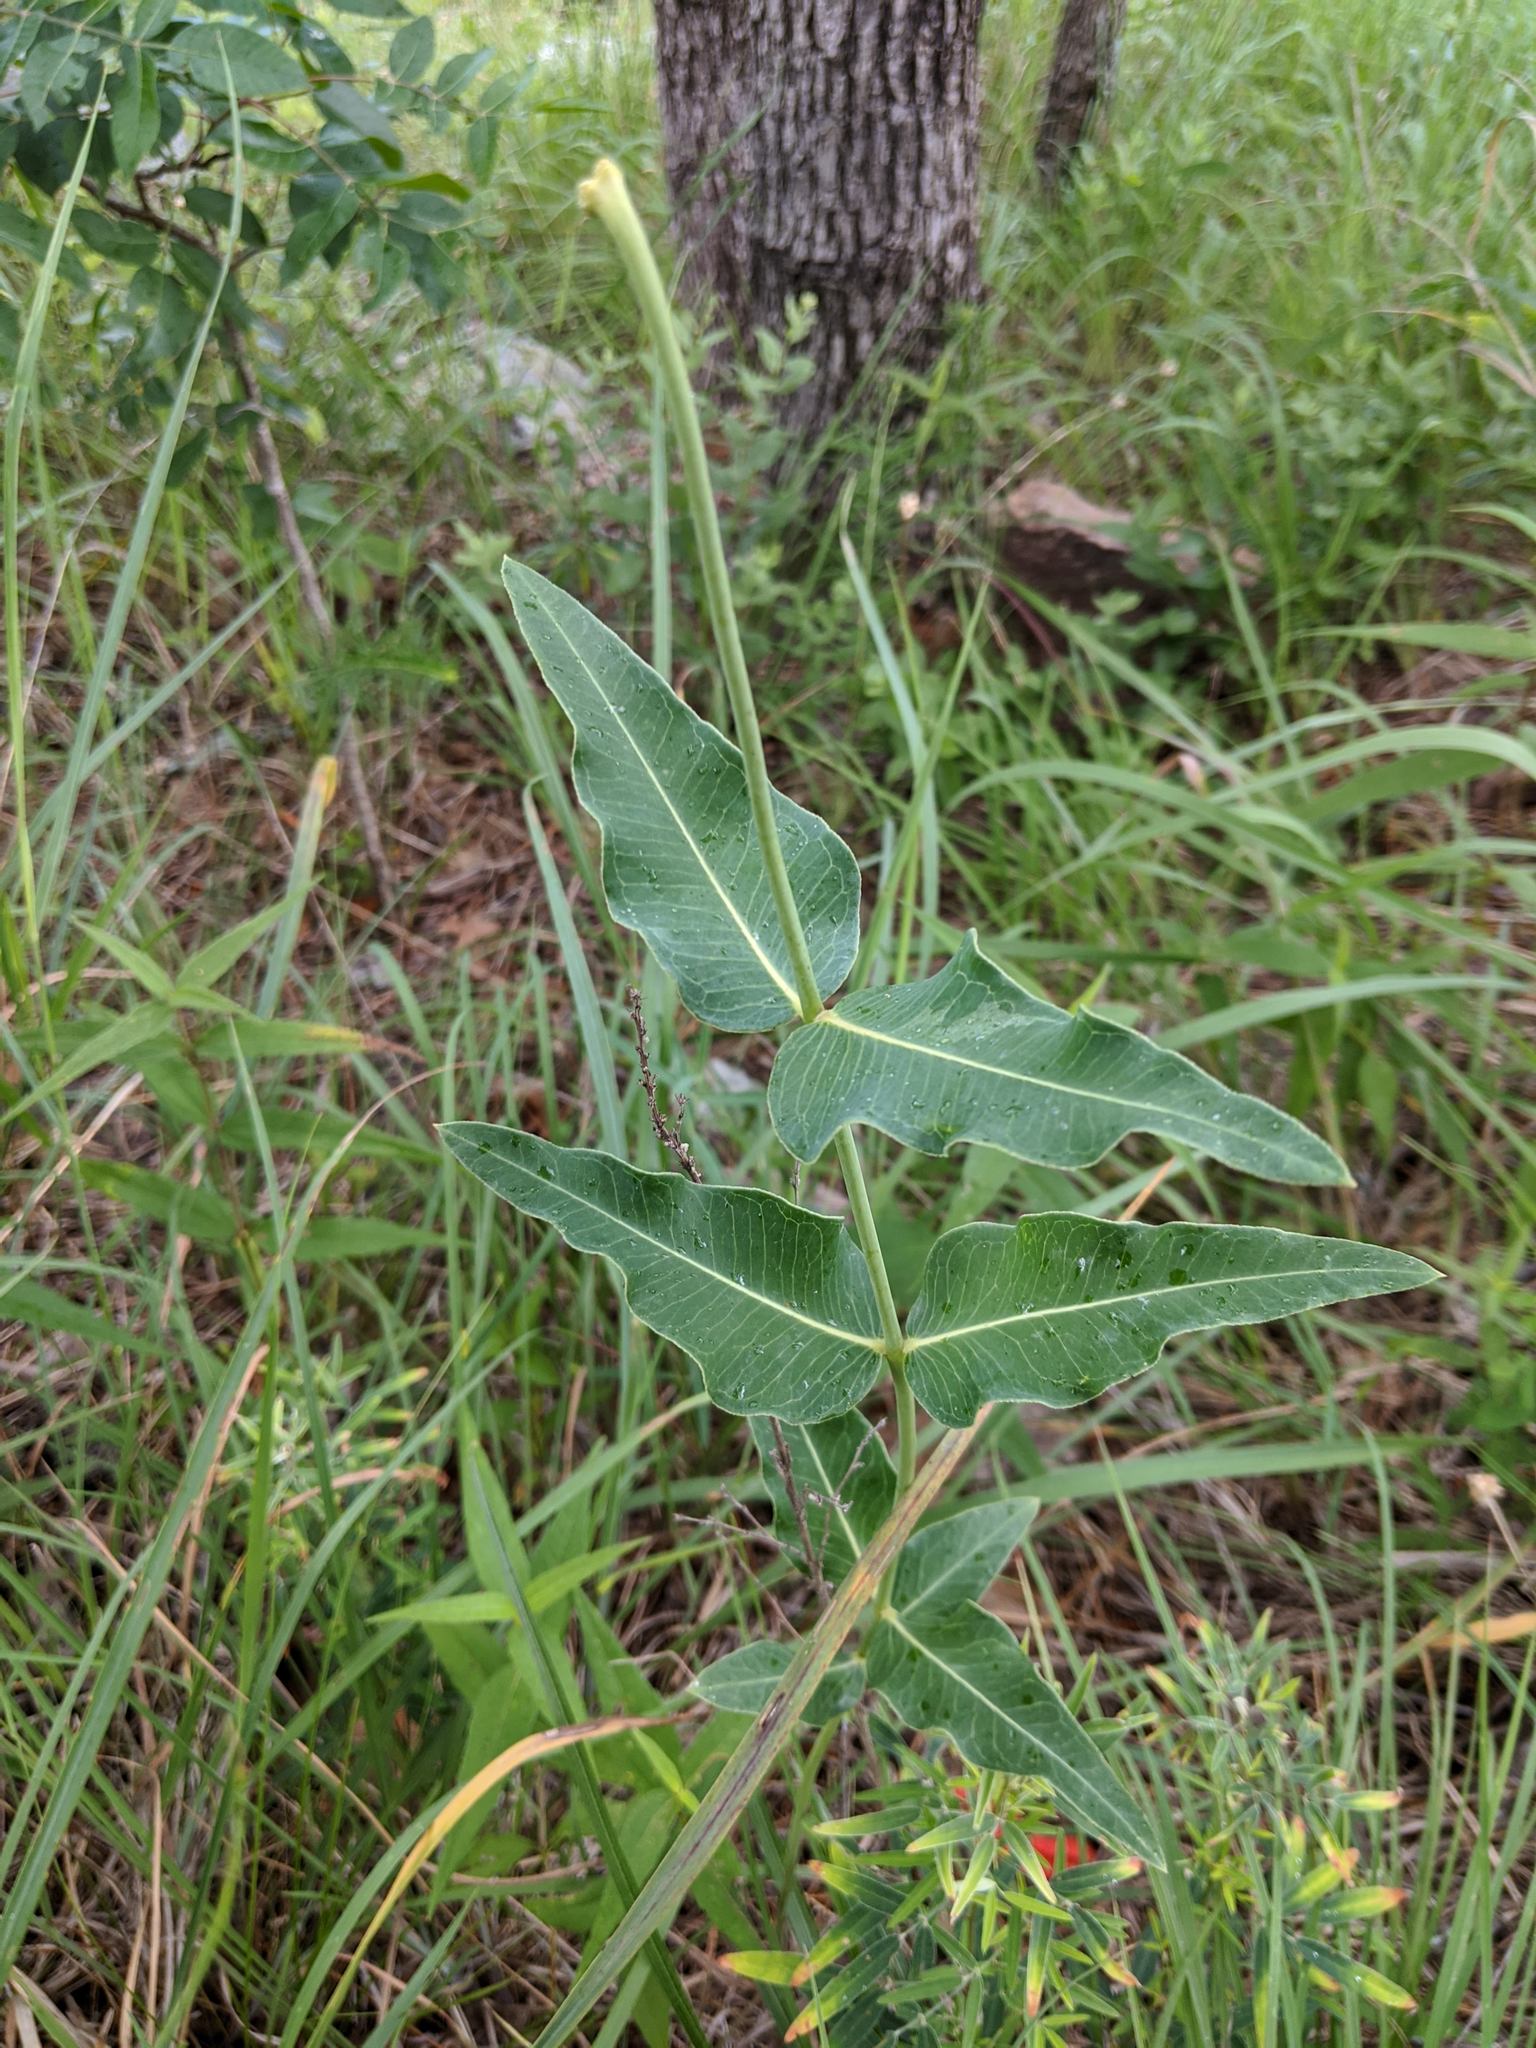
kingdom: Plantae
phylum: Tracheophyta
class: Magnoliopsida
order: Gentianales
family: Apocynaceae
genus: Asclepias
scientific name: Asclepias meadii
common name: Mead's milkweed
